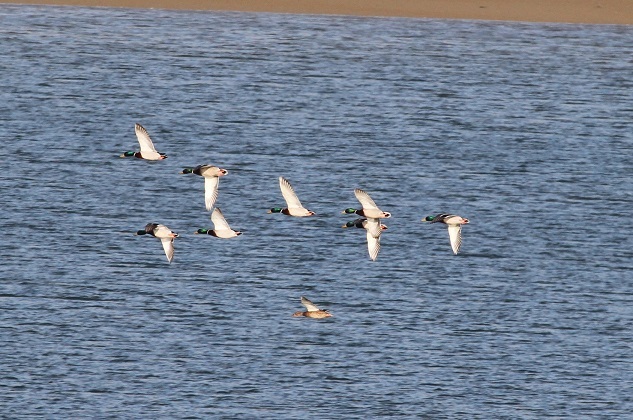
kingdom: Animalia
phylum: Chordata
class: Aves
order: Anseriformes
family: Anatidae
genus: Anas
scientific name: Anas platyrhynchos
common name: Mallard
